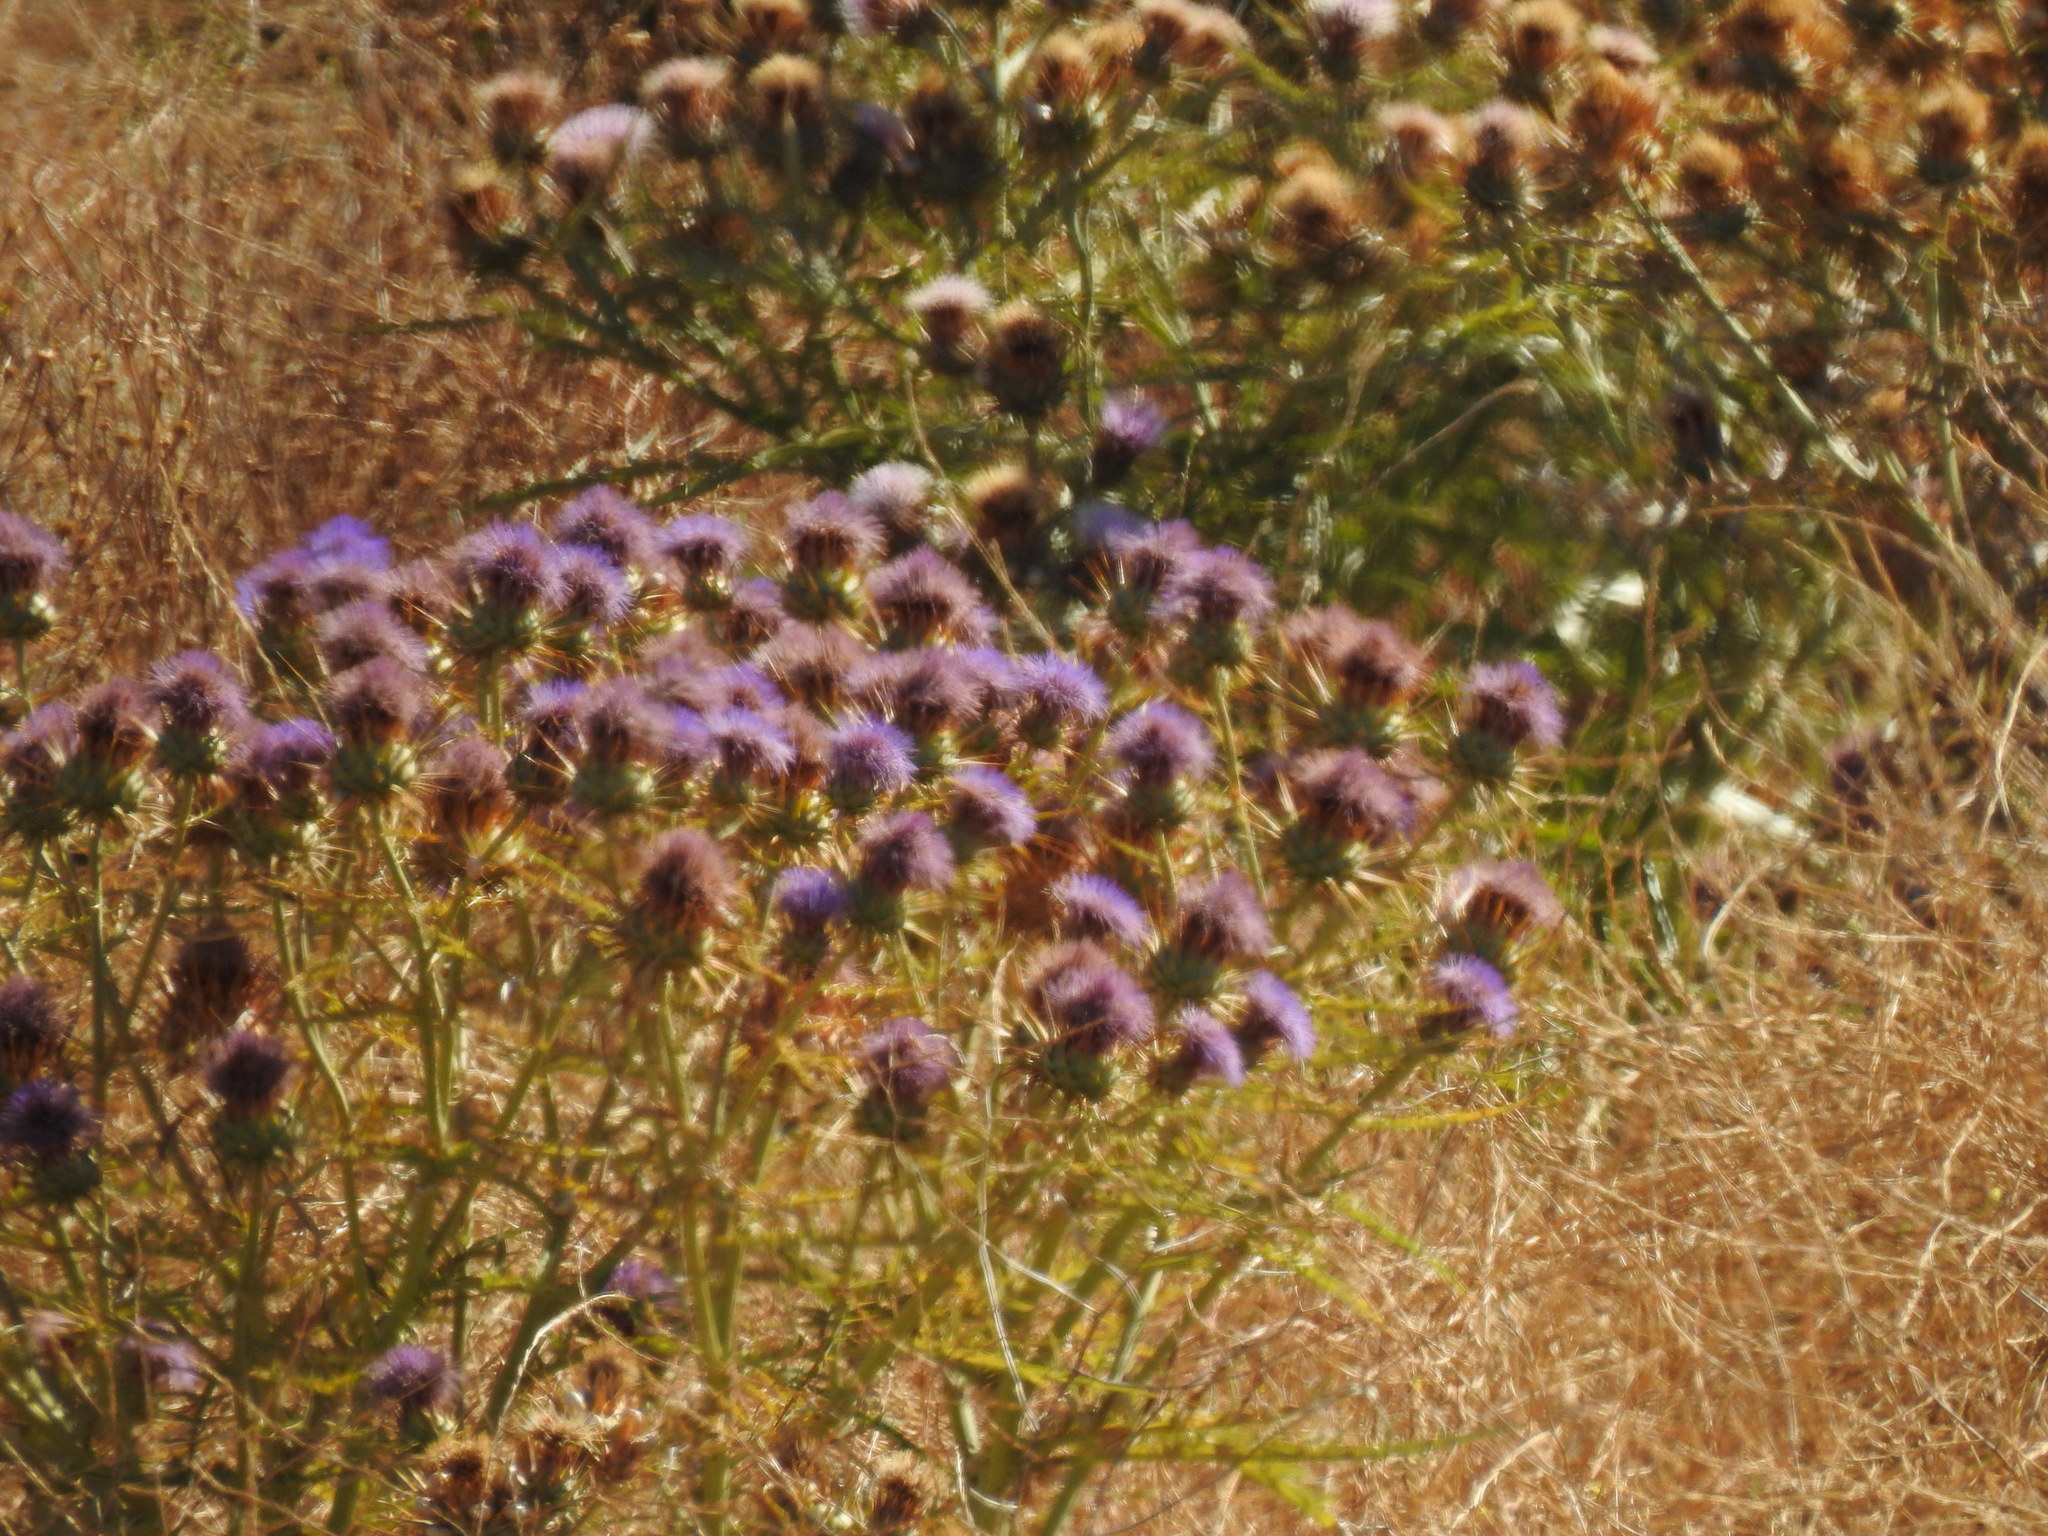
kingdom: Plantae
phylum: Tracheophyta
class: Magnoliopsida
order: Asterales
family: Asteraceae
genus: Cynara
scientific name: Cynara cardunculus
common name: Globe artichoke
